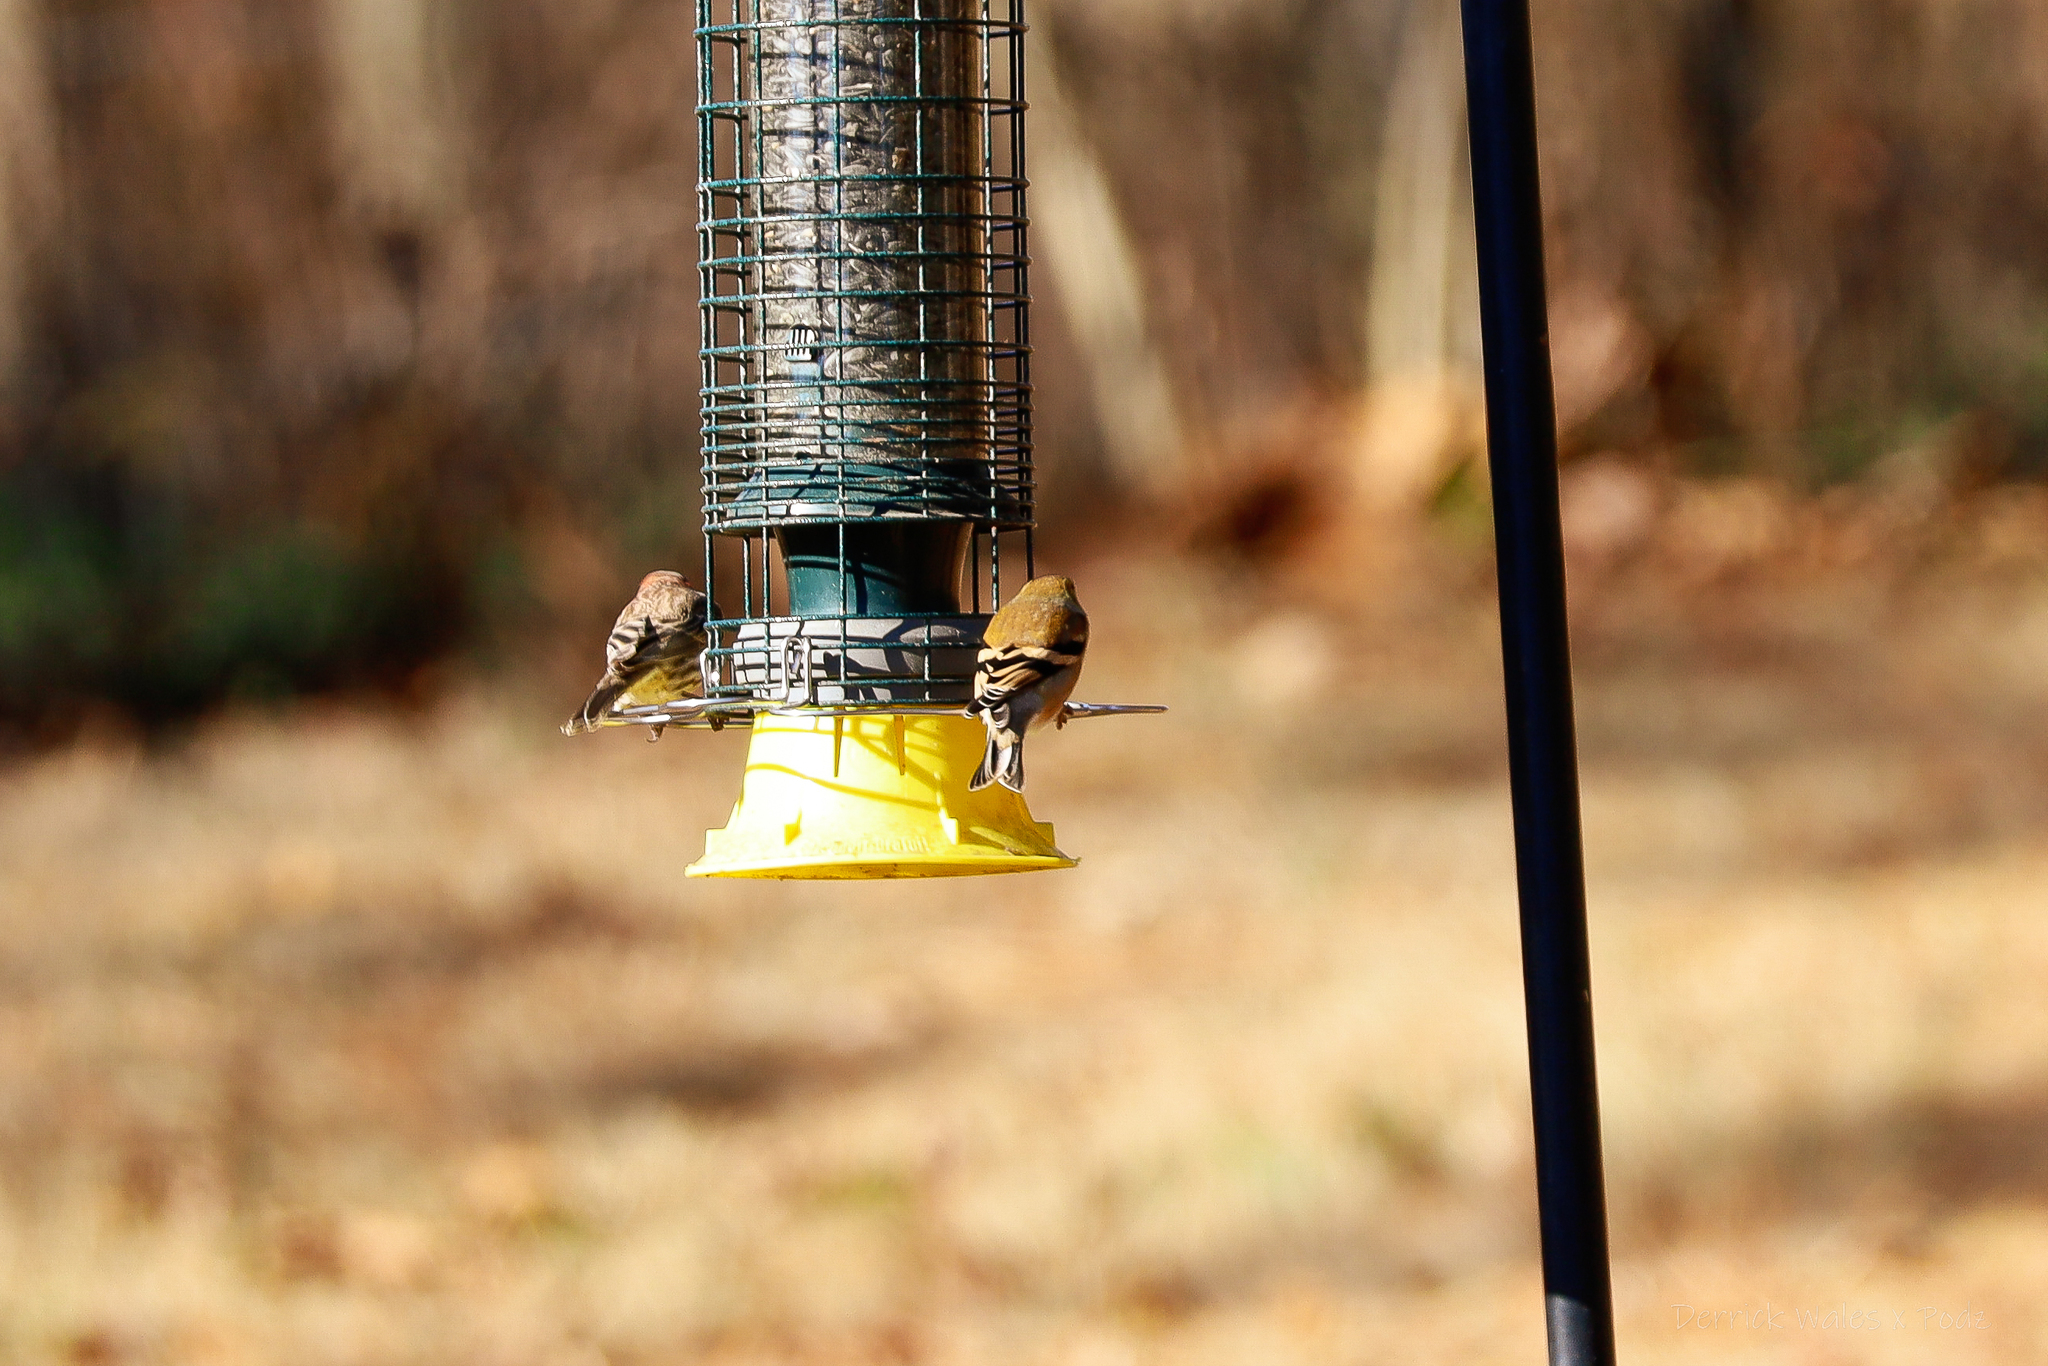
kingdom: Animalia
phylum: Chordata
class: Aves
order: Passeriformes
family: Fringillidae
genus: Spinus
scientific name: Spinus tristis
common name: American goldfinch
